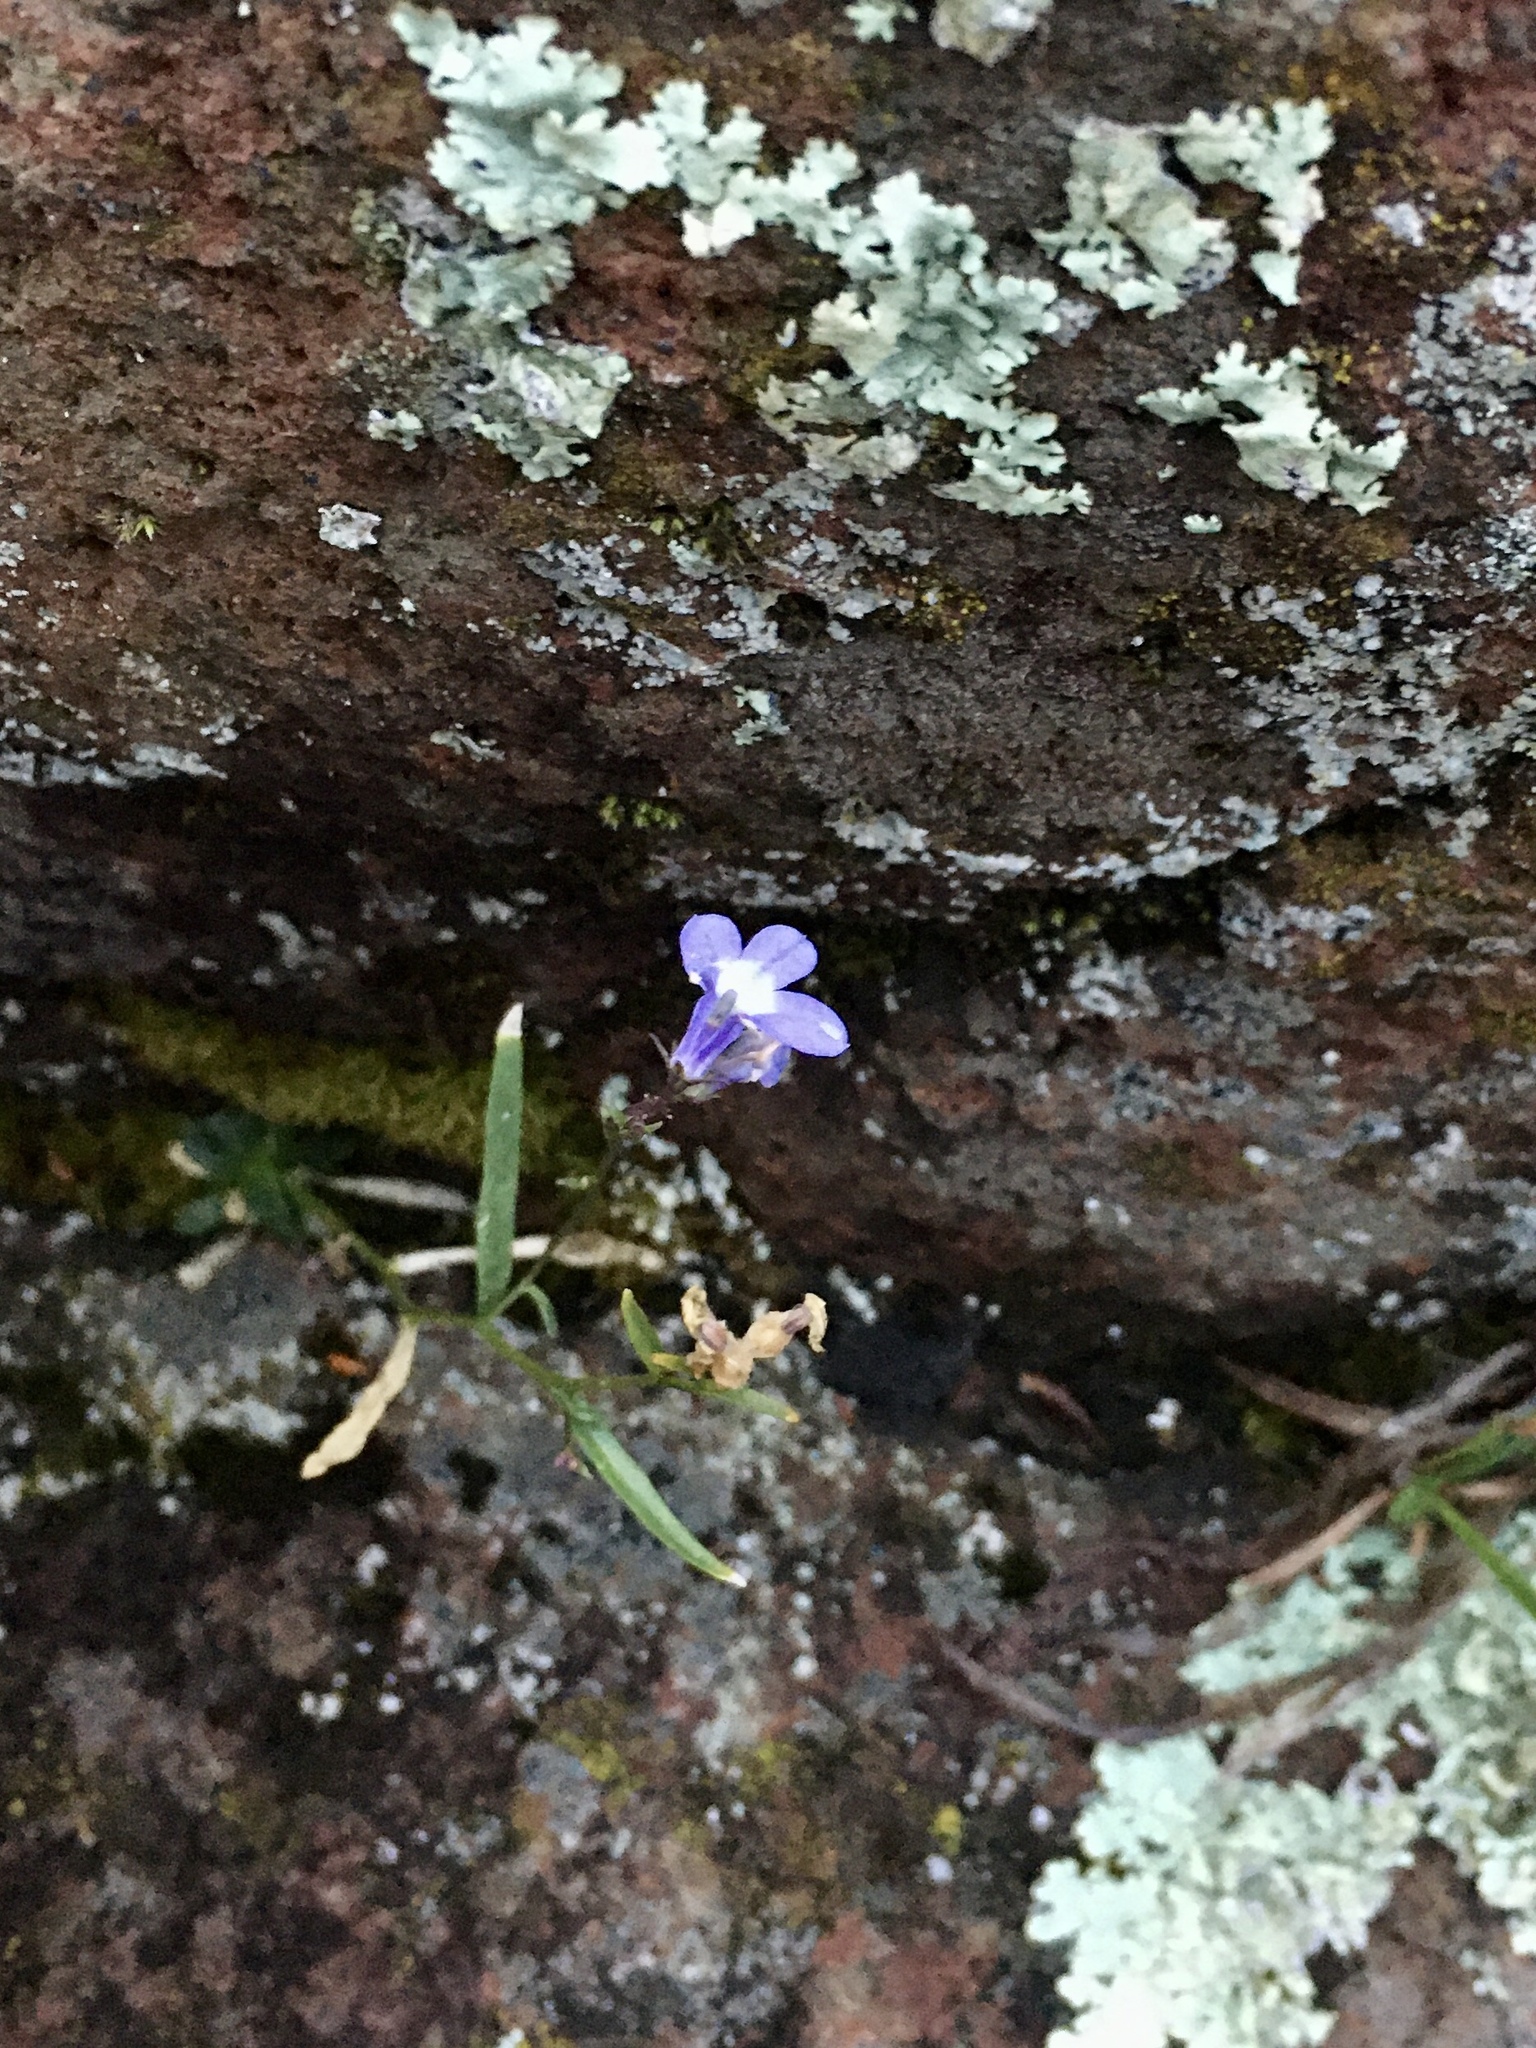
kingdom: Plantae
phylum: Tracheophyta
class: Magnoliopsida
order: Asterales
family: Campanulaceae
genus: Lobelia
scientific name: Lobelia kalmii
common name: Kalm's lobelia
